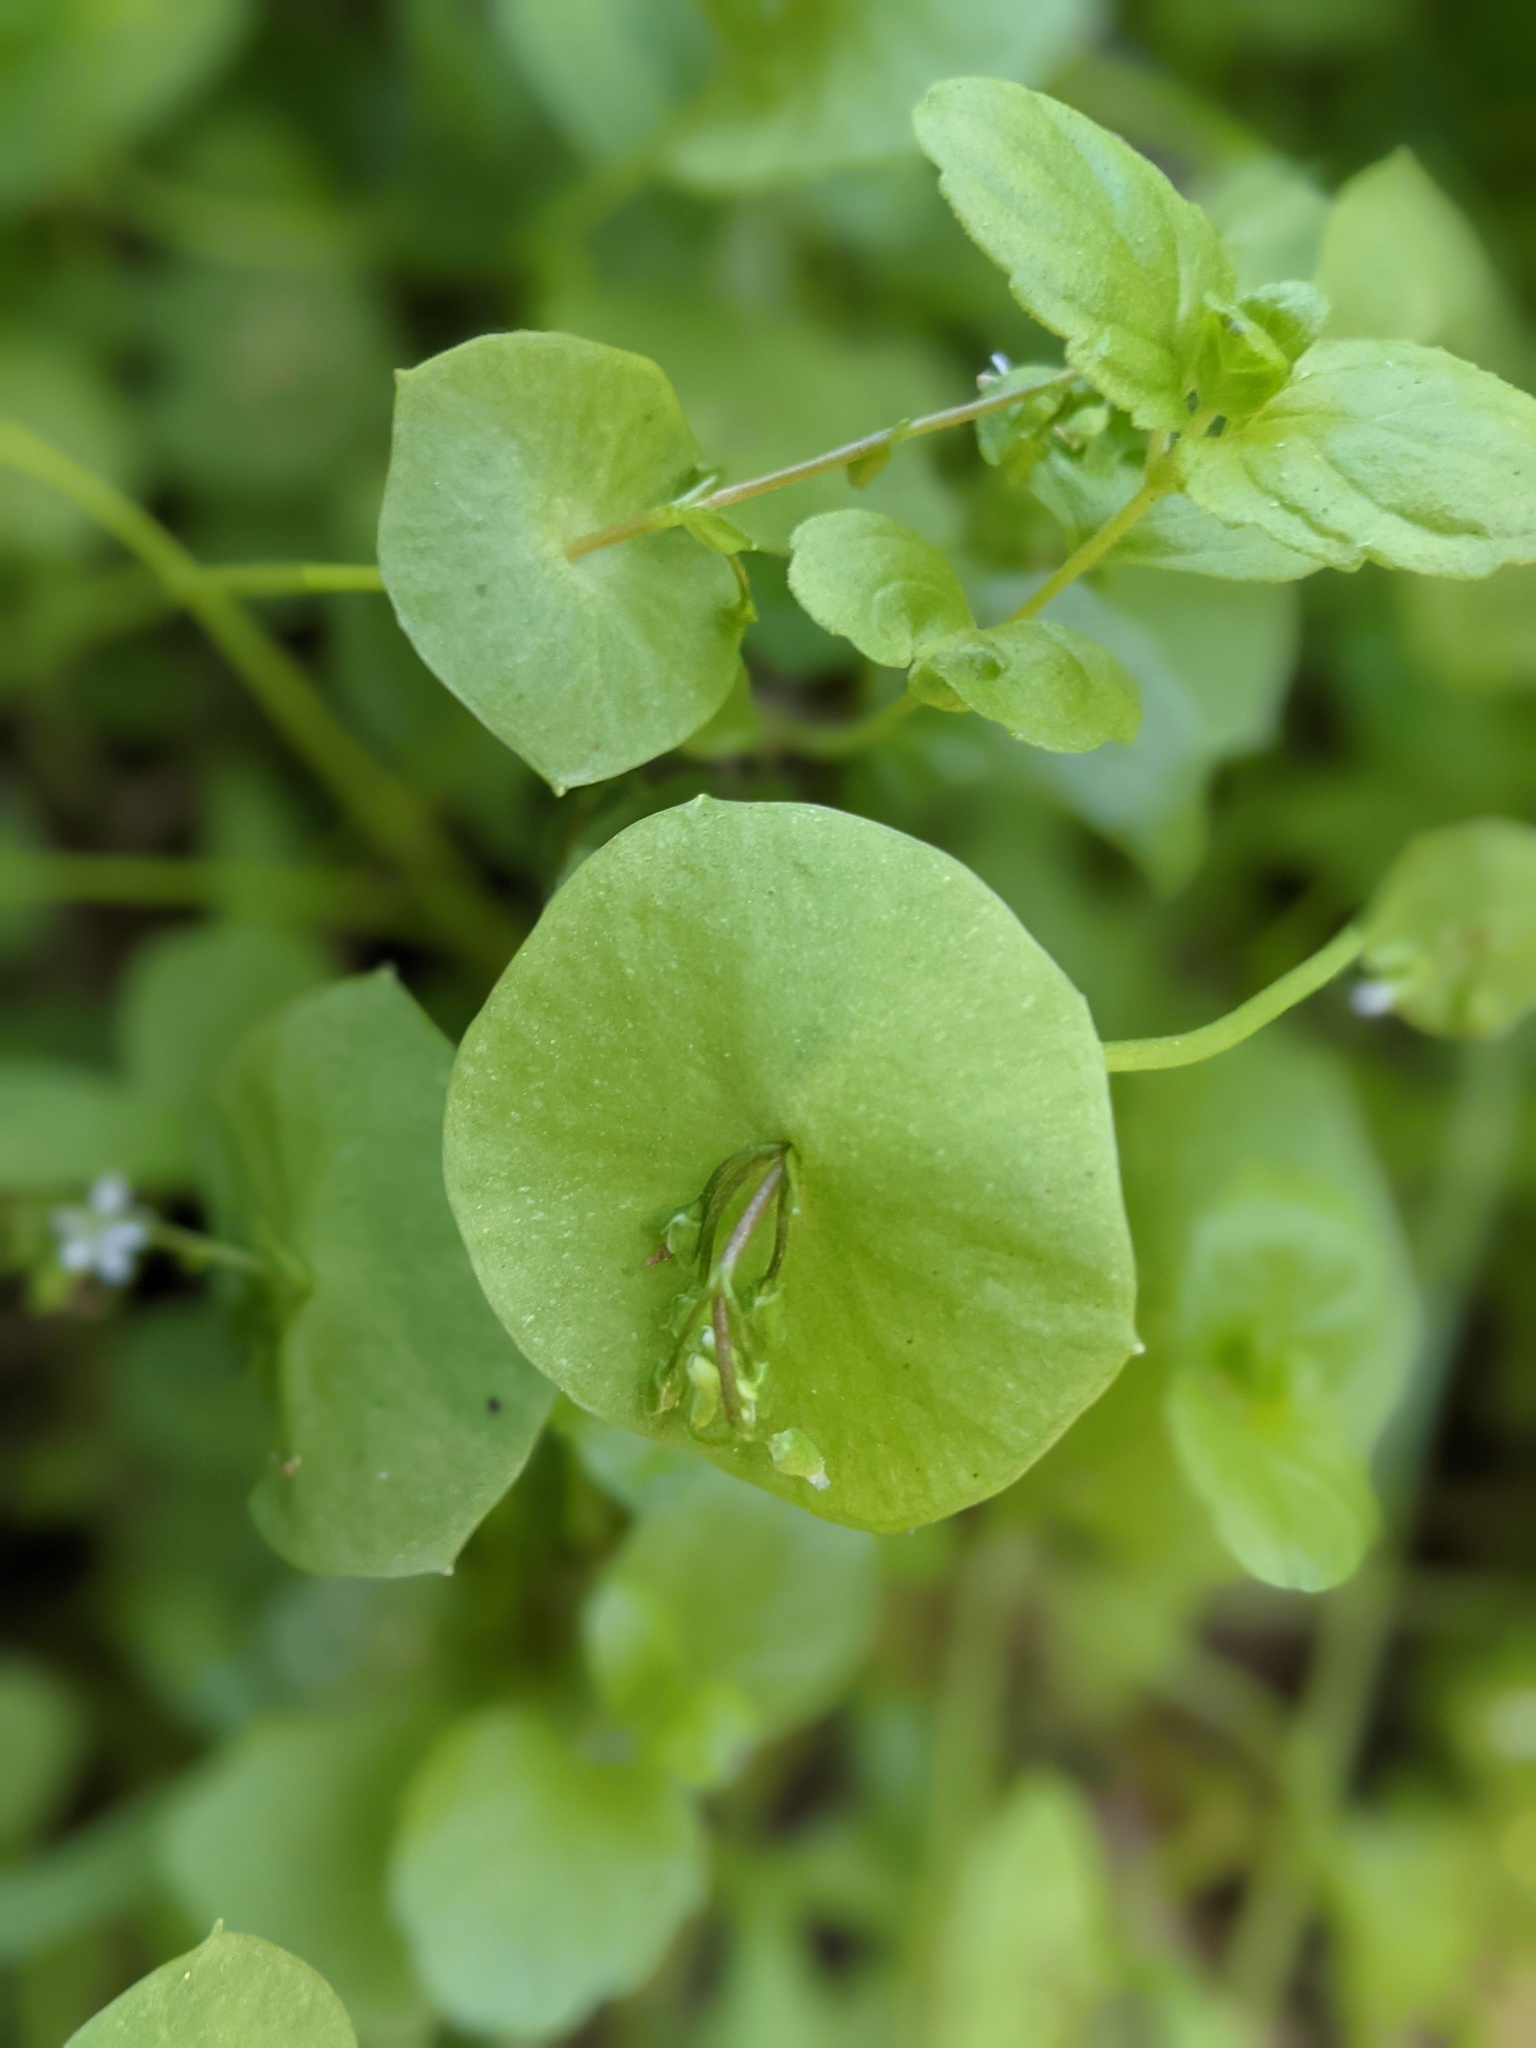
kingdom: Plantae
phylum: Tracheophyta
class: Magnoliopsida
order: Caryophyllales
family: Montiaceae
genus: Claytonia
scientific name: Claytonia perfoliata
